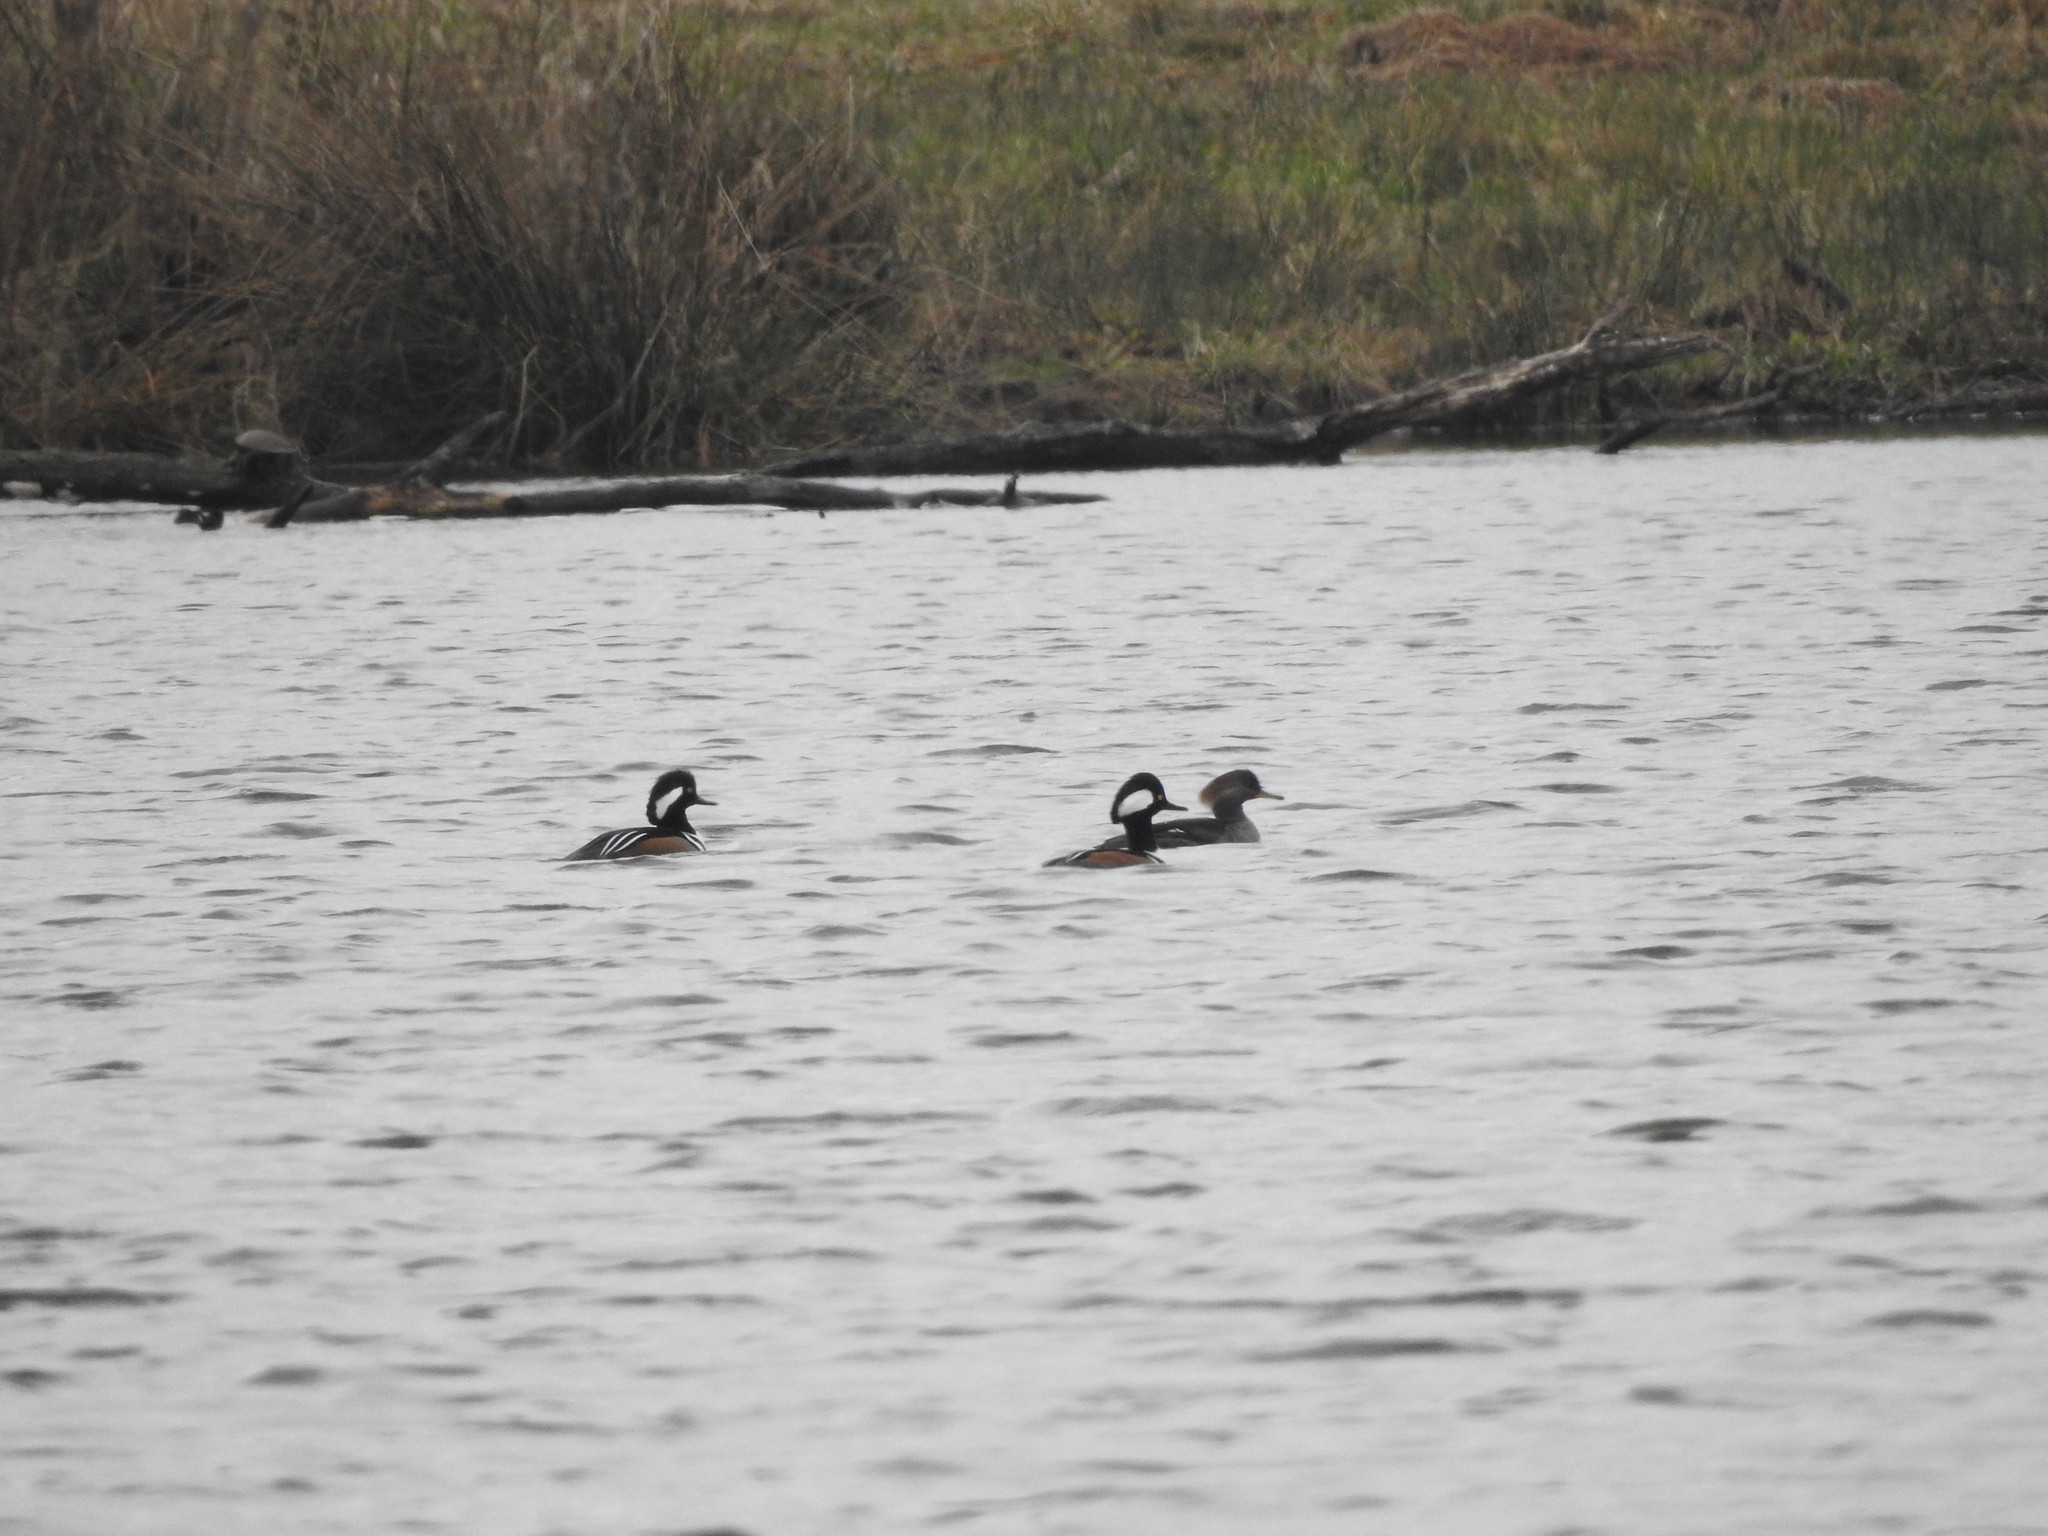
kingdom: Animalia
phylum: Chordata
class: Aves
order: Anseriformes
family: Anatidae
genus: Lophodytes
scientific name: Lophodytes cucullatus
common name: Hooded merganser
